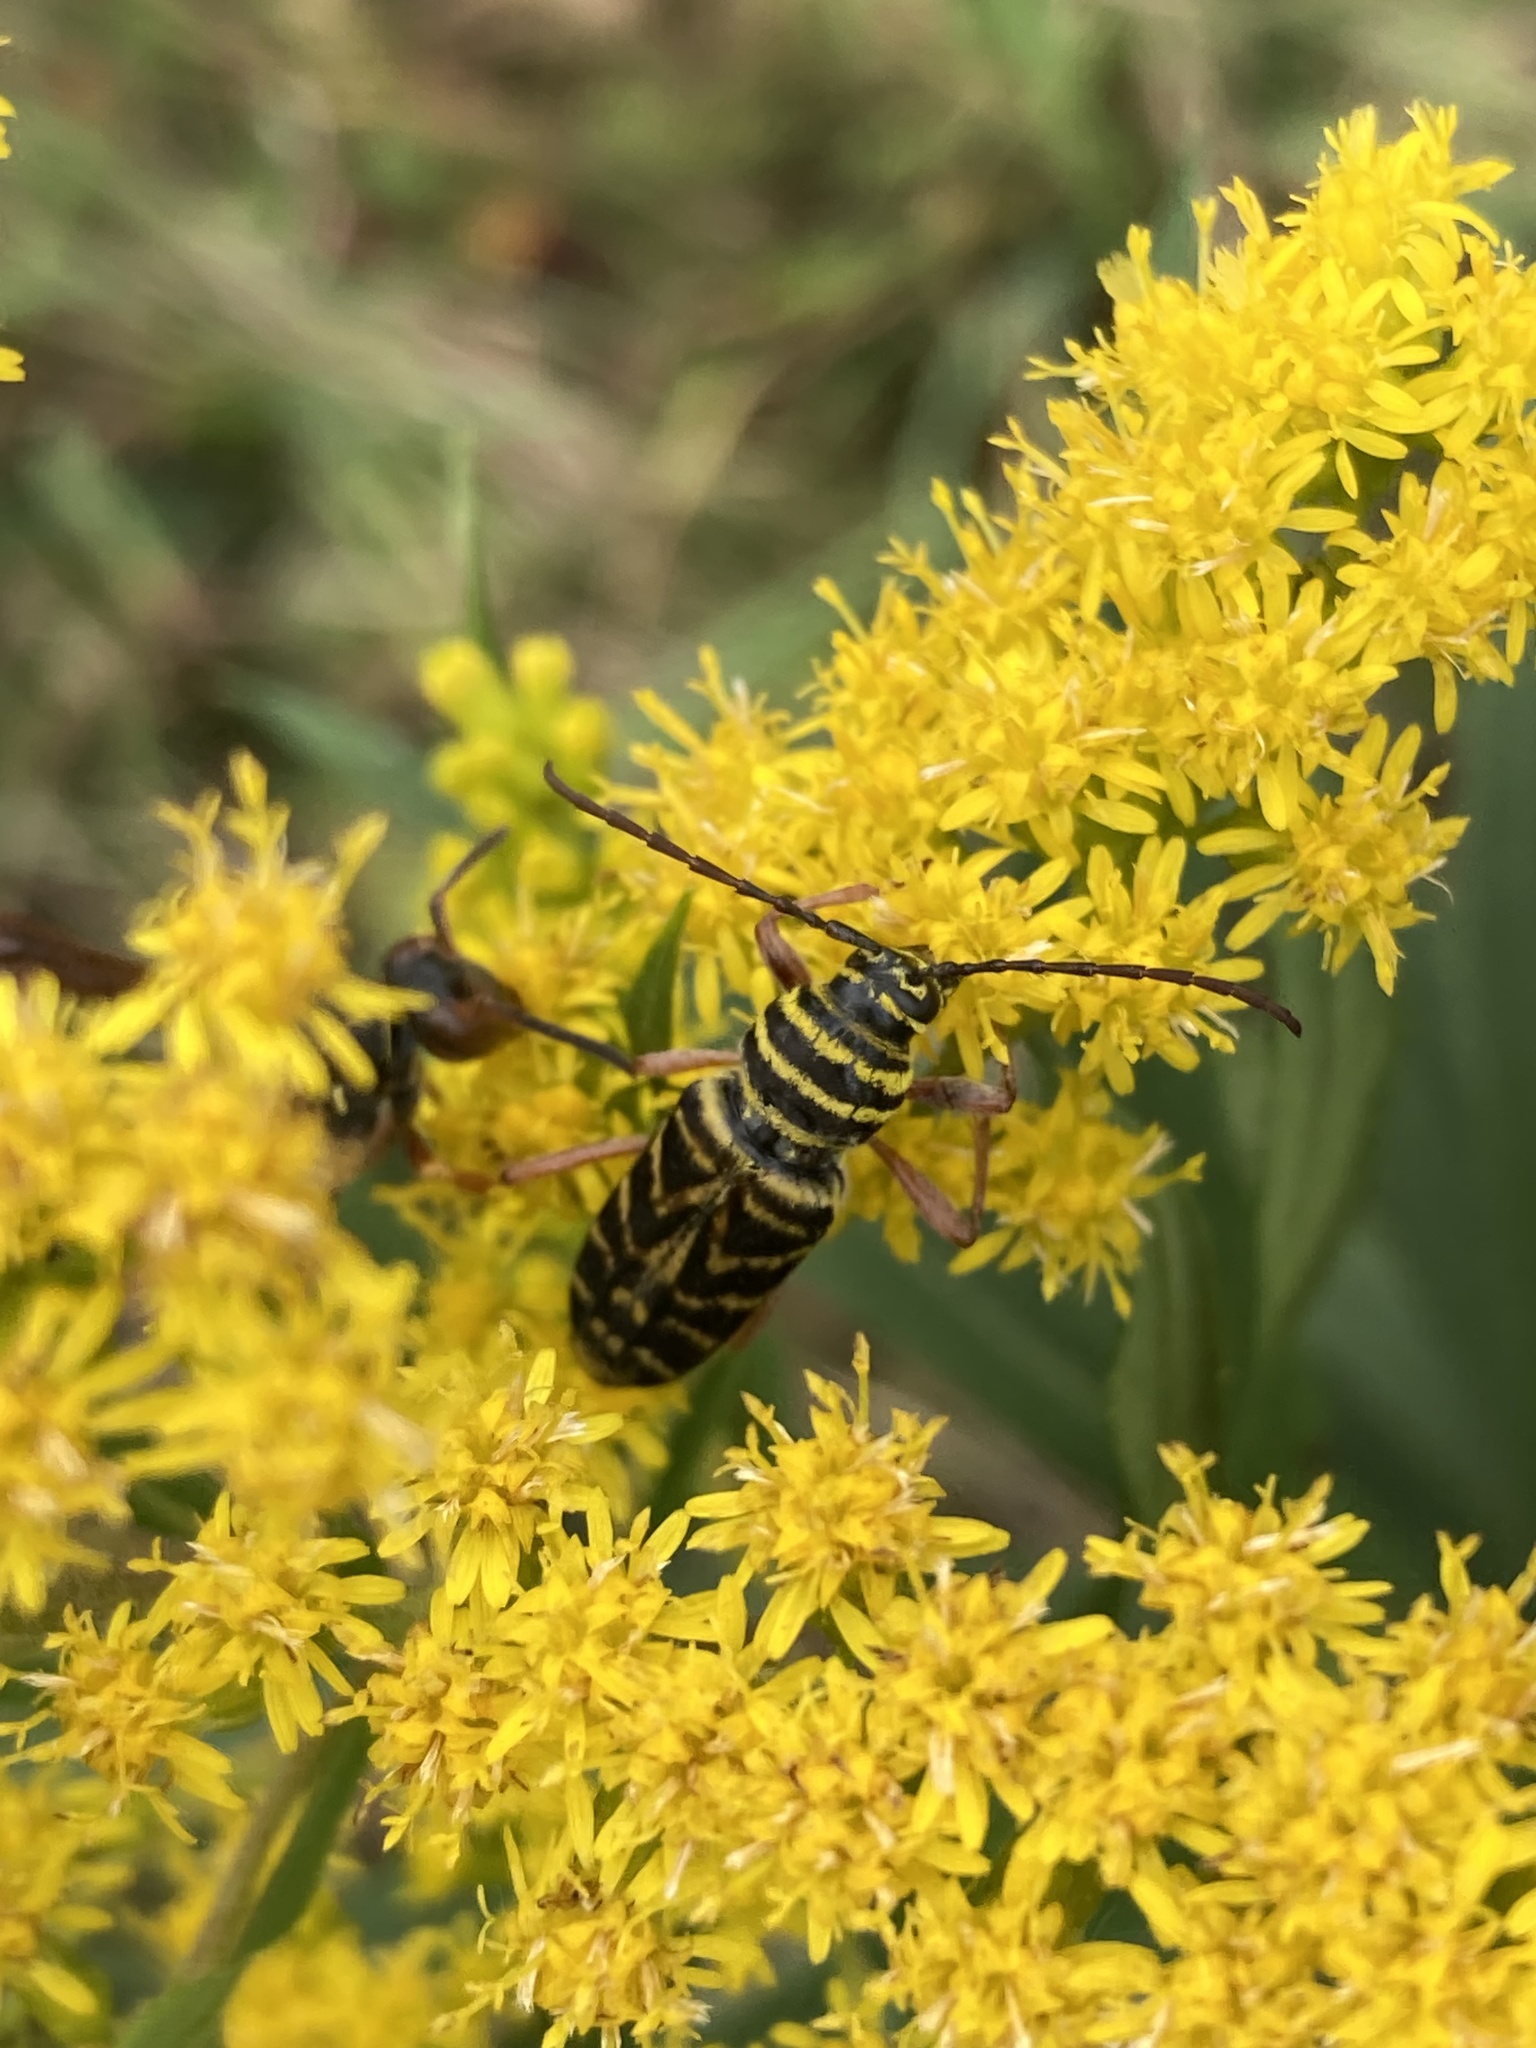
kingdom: Animalia
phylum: Arthropoda
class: Insecta
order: Coleoptera
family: Cerambycidae
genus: Megacyllene
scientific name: Megacyllene robiniae
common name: Locust borer
